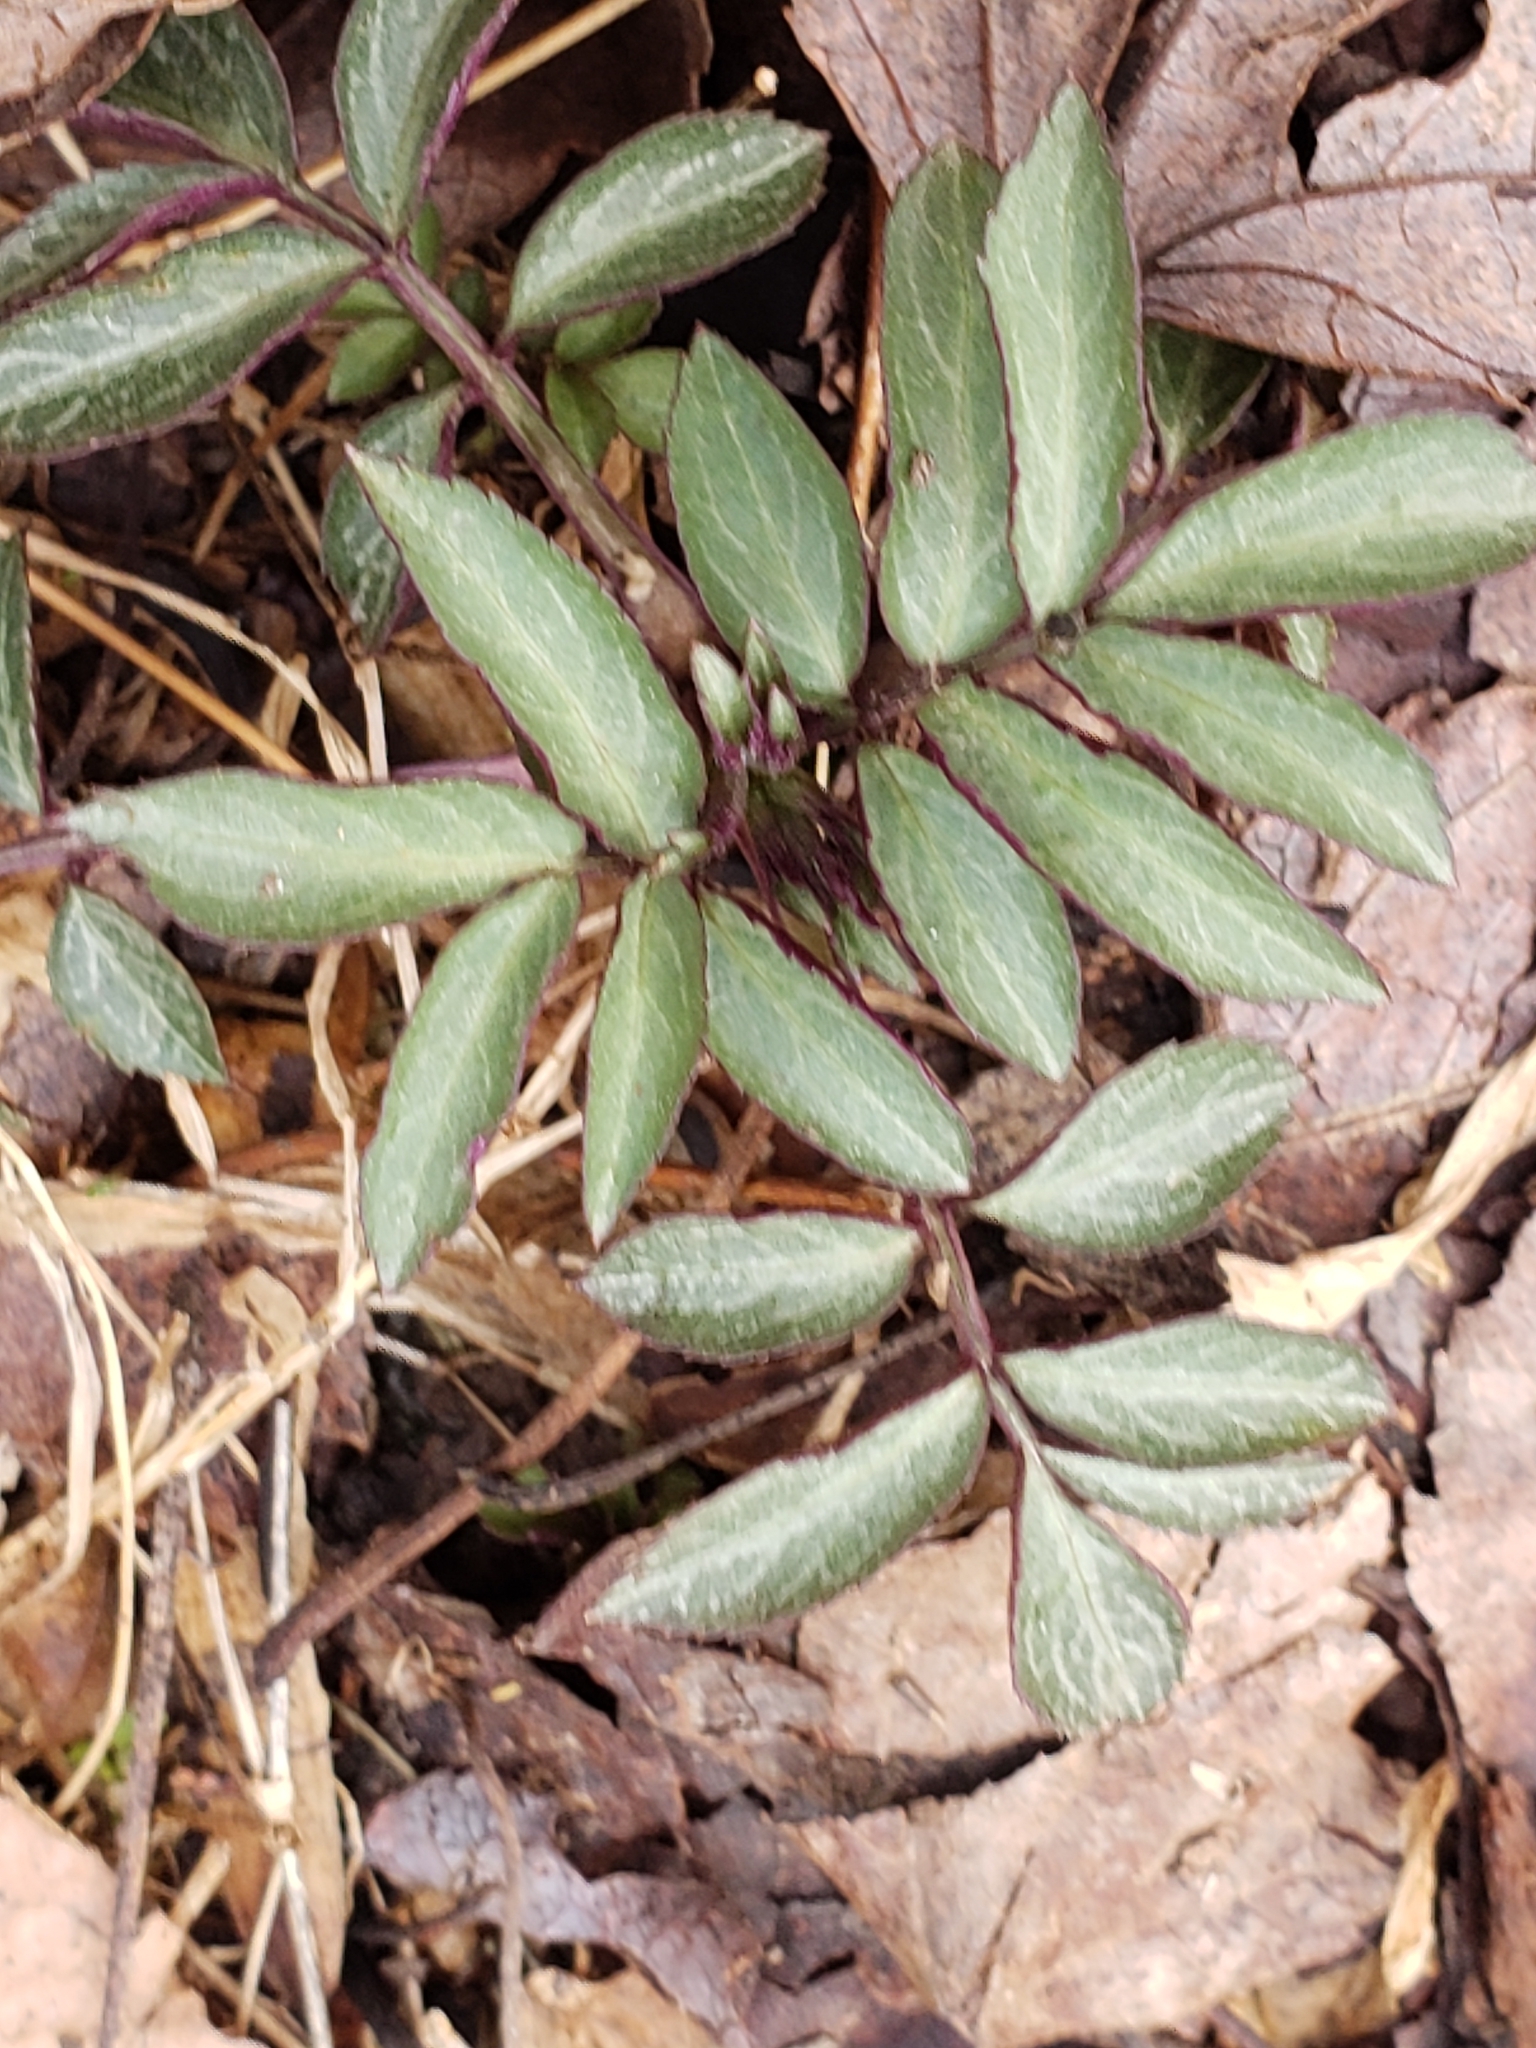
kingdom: Plantae
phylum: Tracheophyta
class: Magnoliopsida
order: Dipsacales
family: Viburnaceae
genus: Sambucus
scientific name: Sambucus canadensis
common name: American elder
